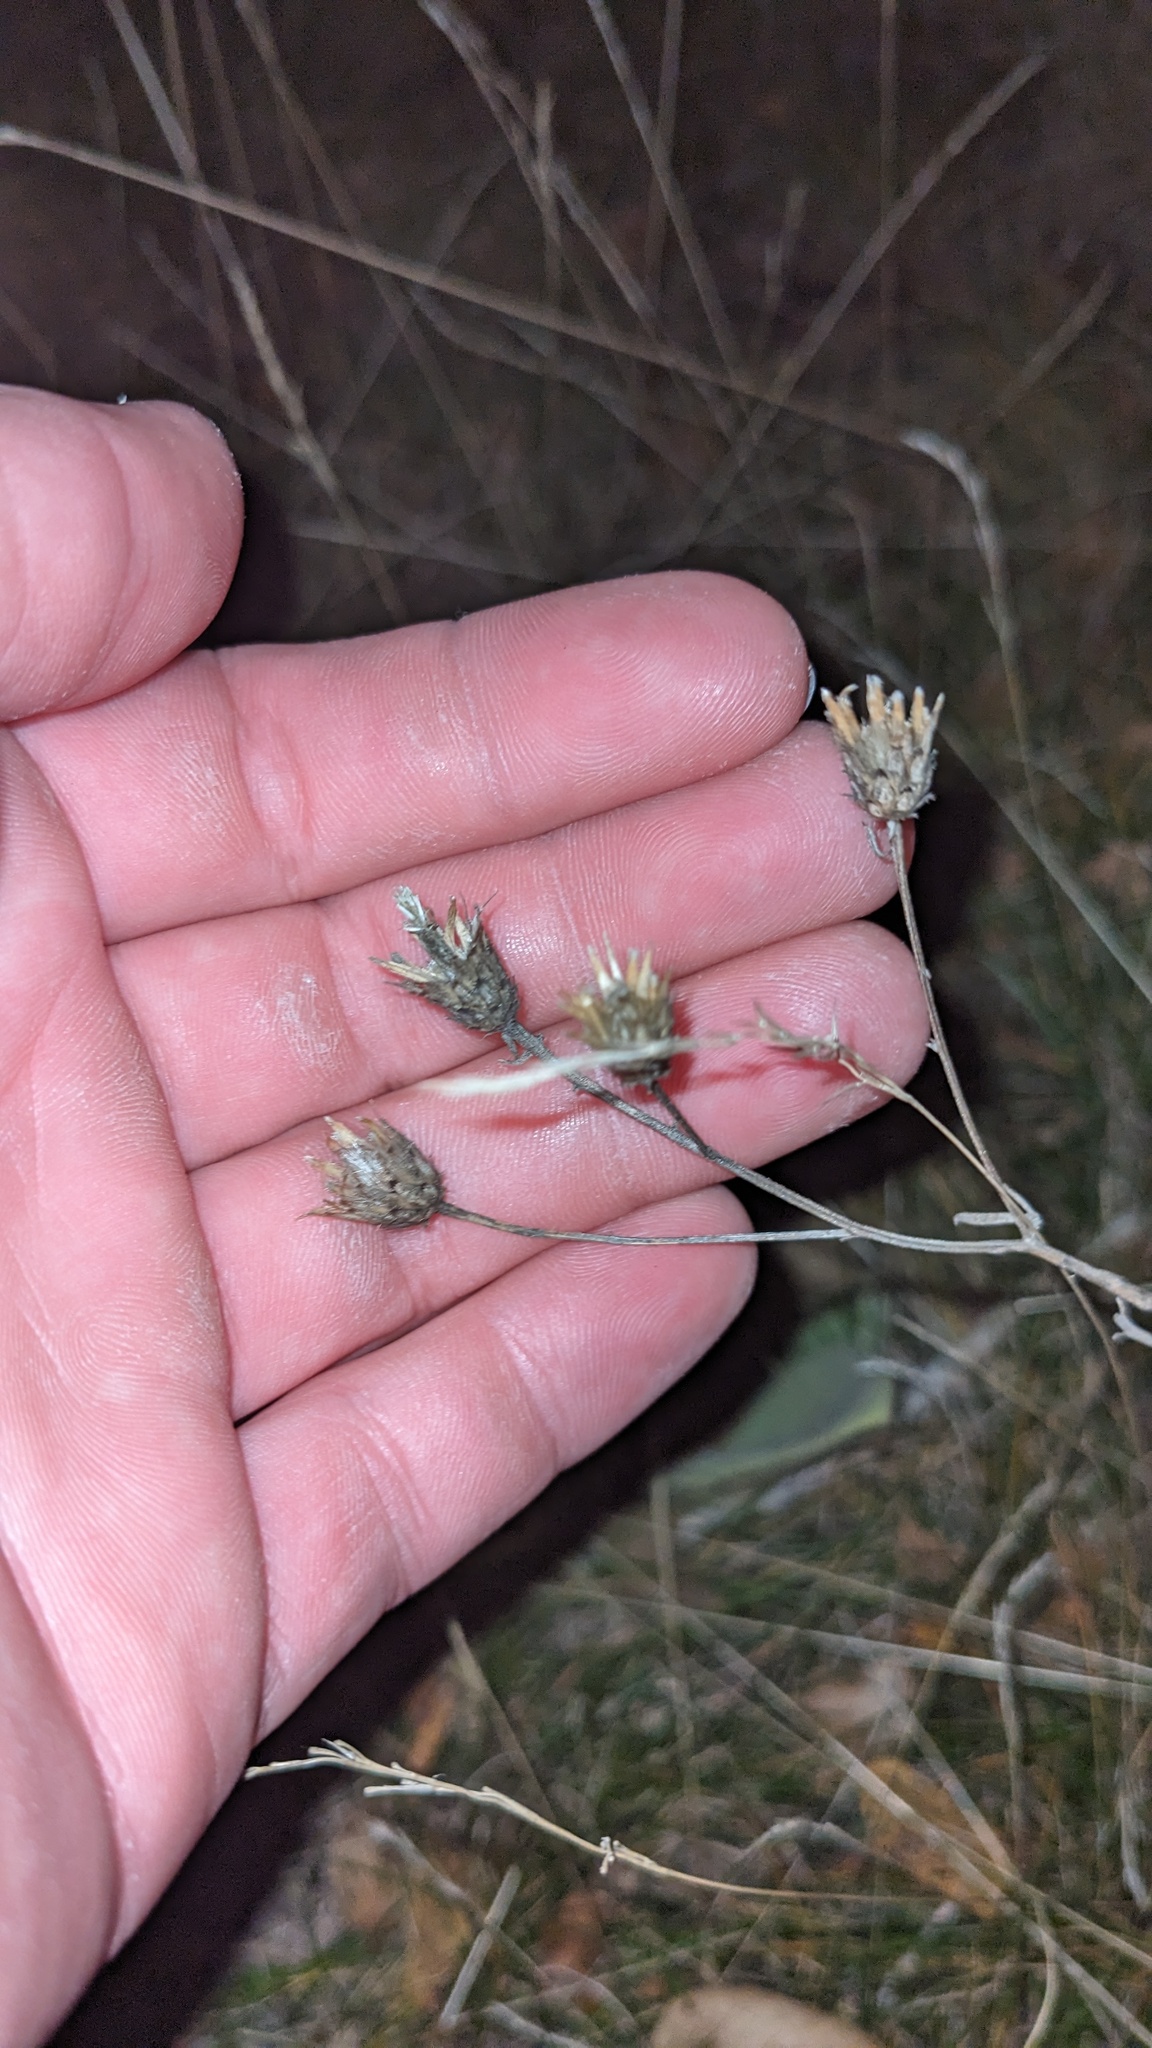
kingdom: Plantae
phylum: Tracheophyta
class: Magnoliopsida
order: Asterales
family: Asteraceae
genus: Centaurea
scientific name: Centaurea stoebe
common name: Spotted knapweed
